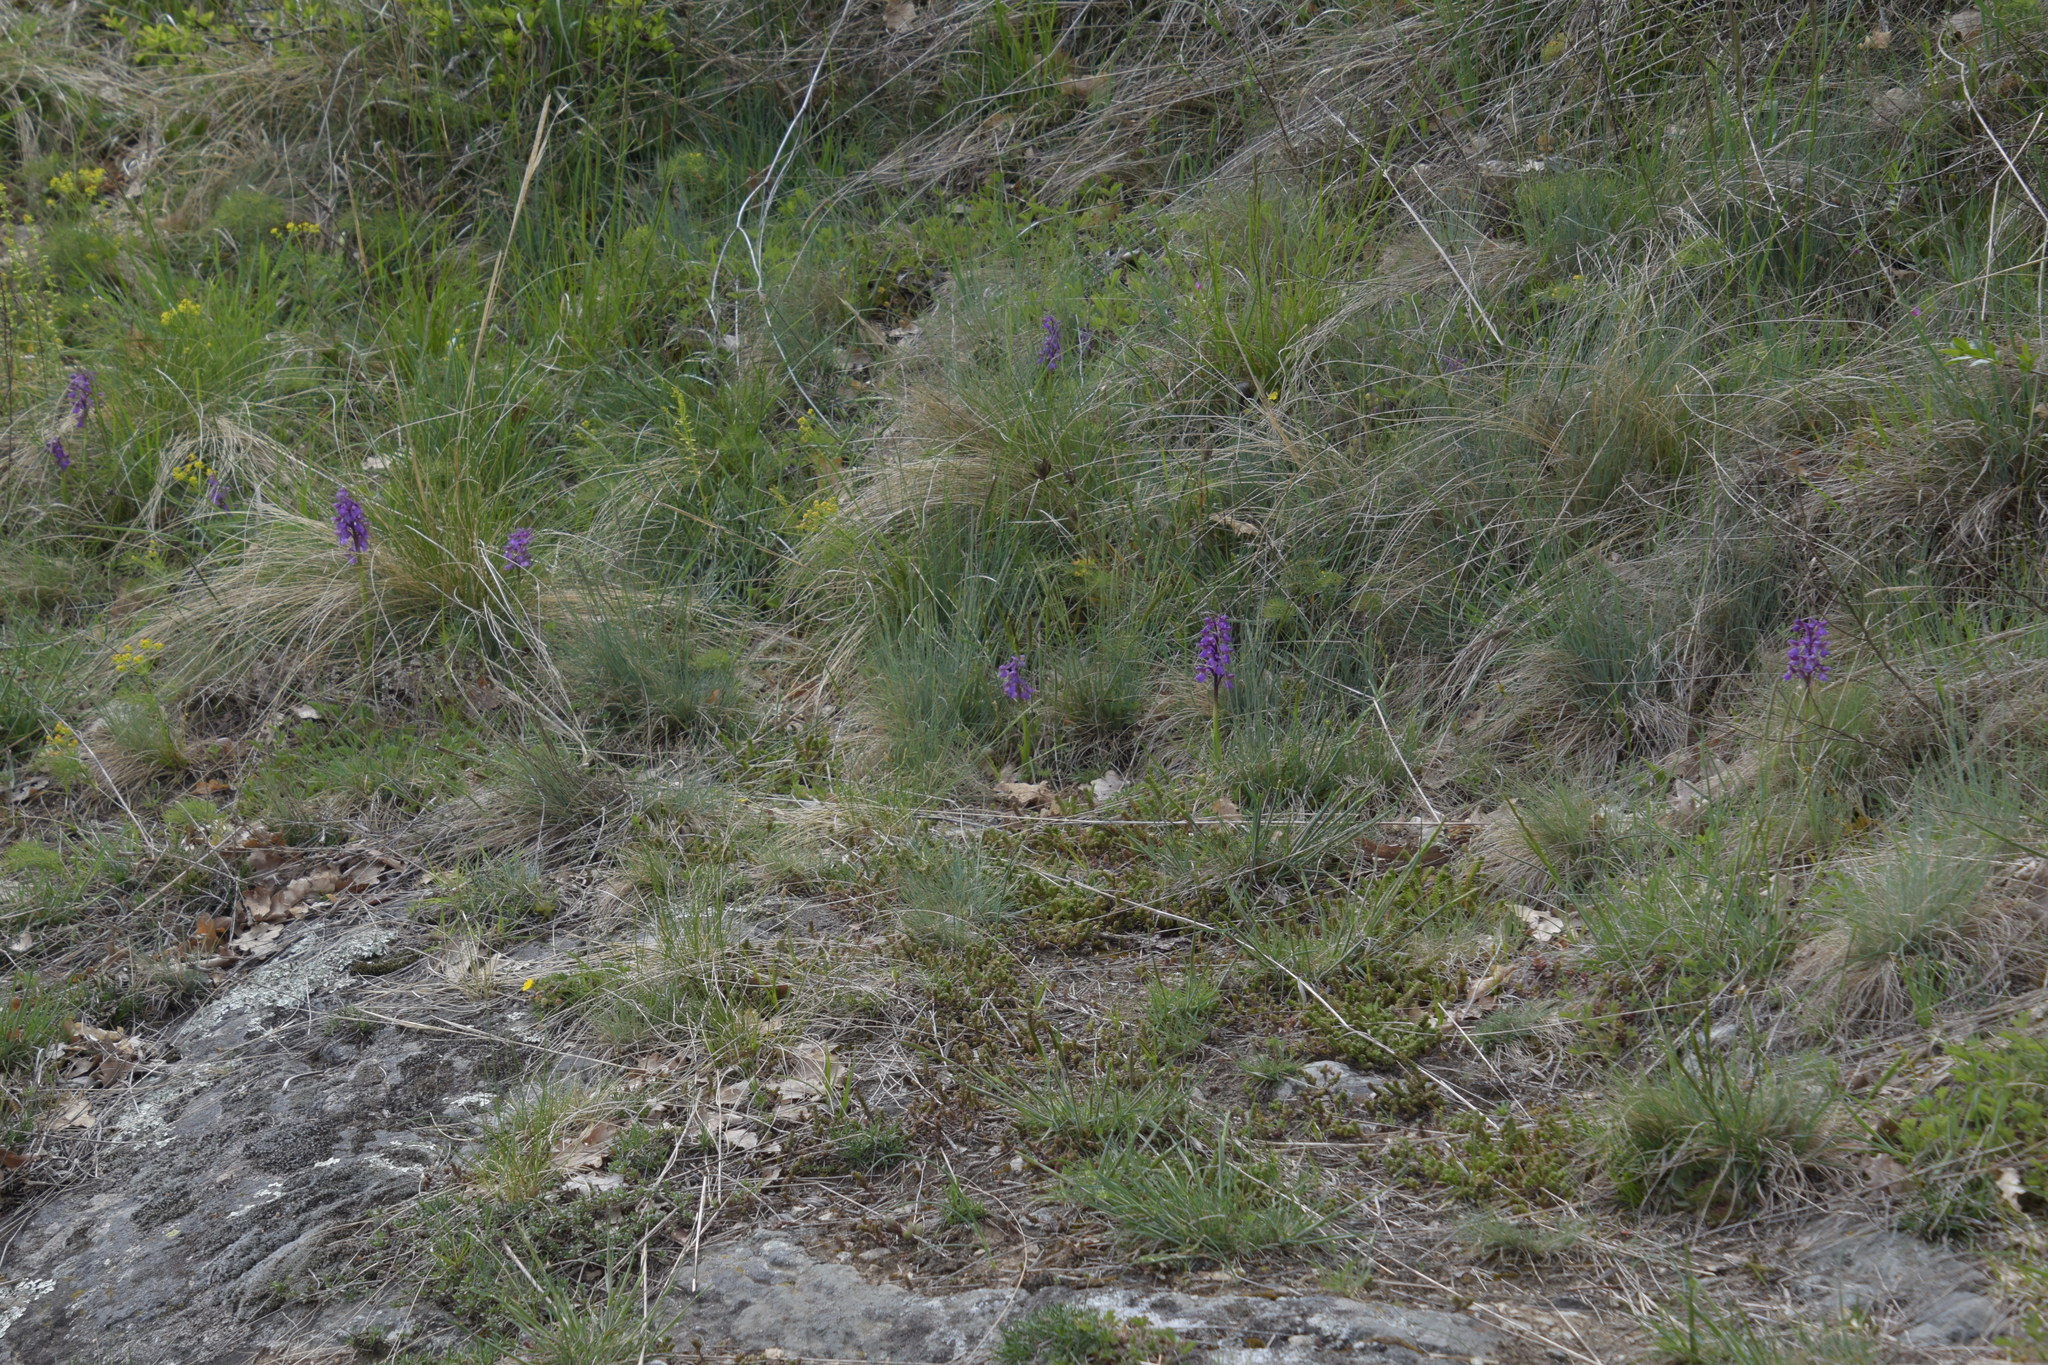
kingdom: Plantae
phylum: Tracheophyta
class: Liliopsida
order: Asparagales
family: Orchidaceae
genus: Anacamptis
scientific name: Anacamptis morio
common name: Green-winged orchid
